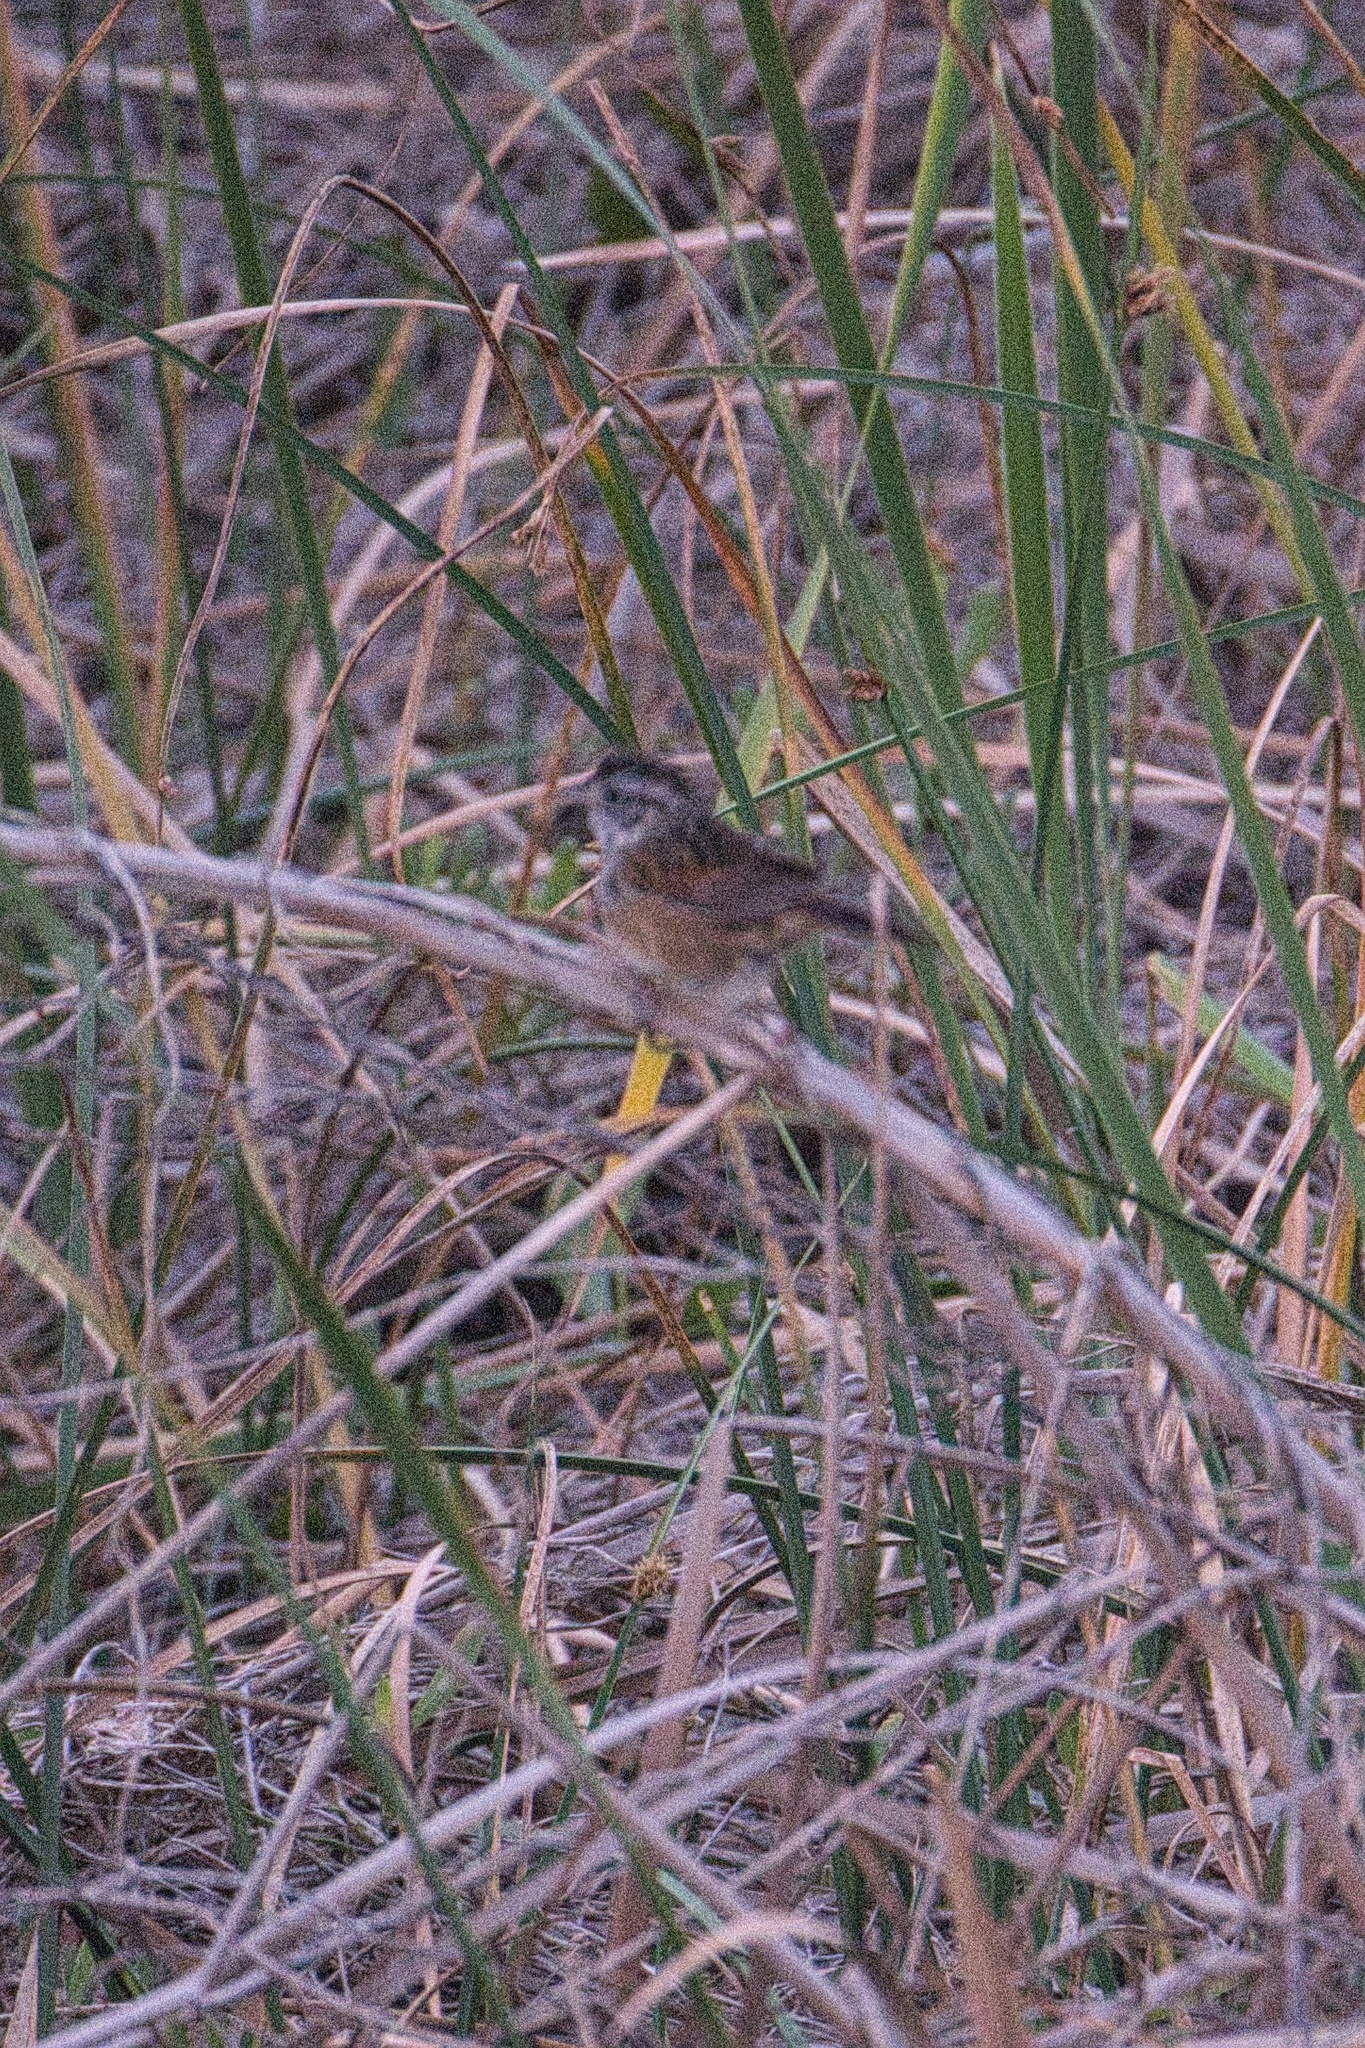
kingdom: Animalia
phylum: Chordata
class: Aves
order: Passeriformes
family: Passerellidae
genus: Melospiza
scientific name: Melospiza georgiana
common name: Swamp sparrow
